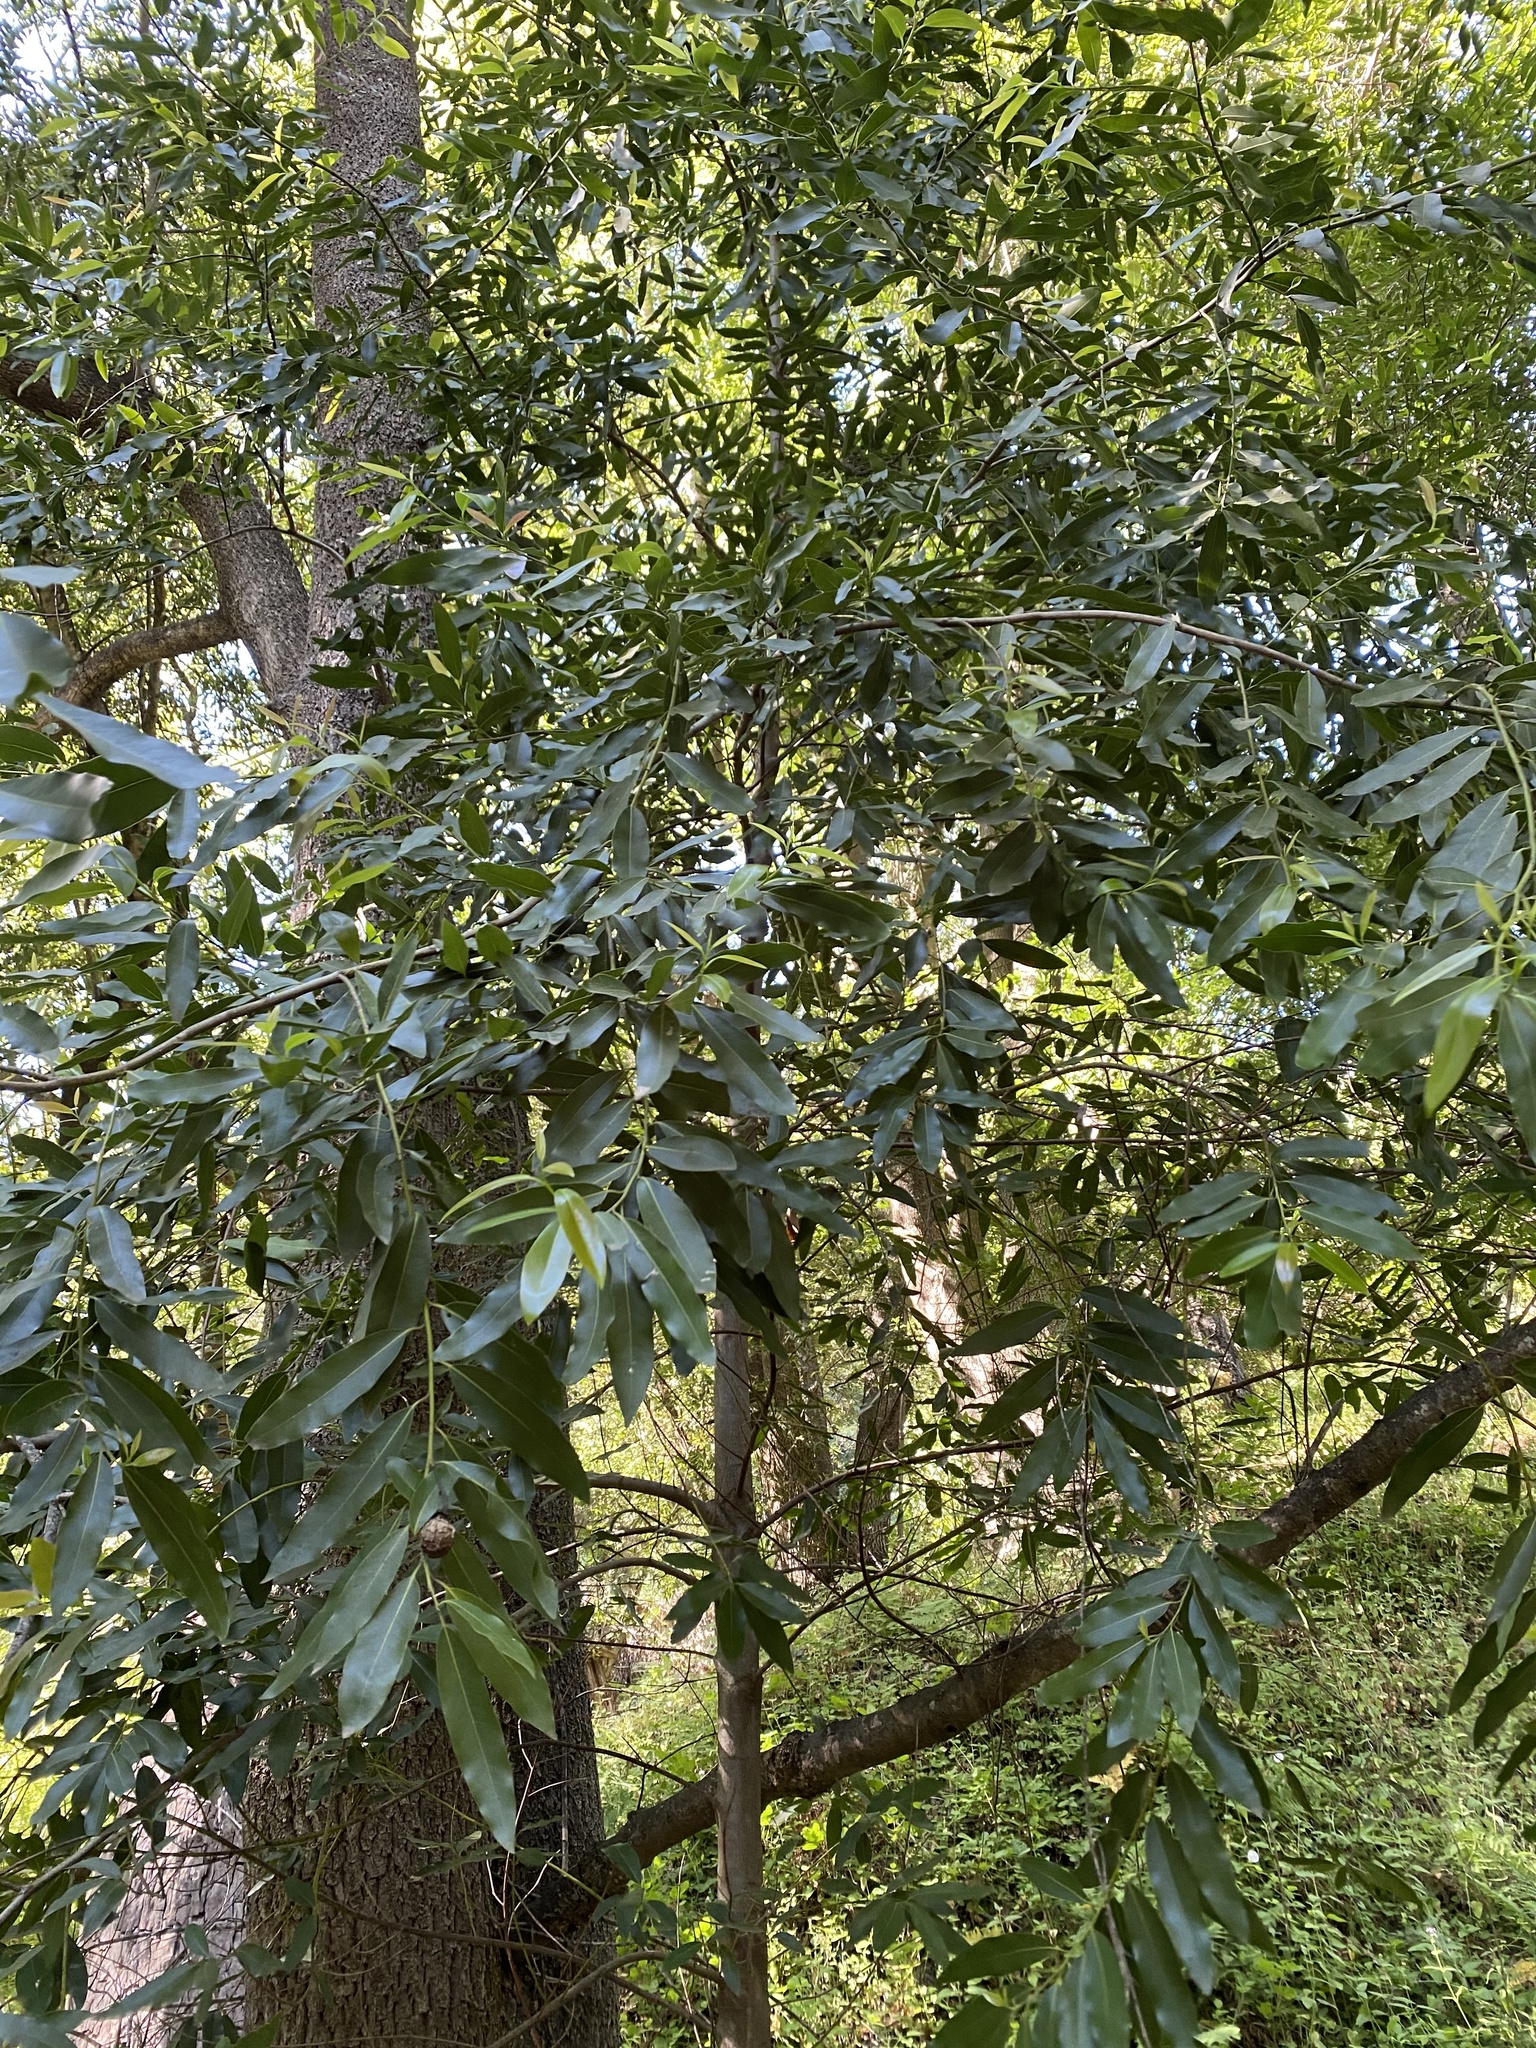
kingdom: Plantae
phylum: Tracheophyta
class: Magnoliopsida
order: Laurales
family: Lauraceae
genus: Umbellularia
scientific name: Umbellularia californica
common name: California bay
